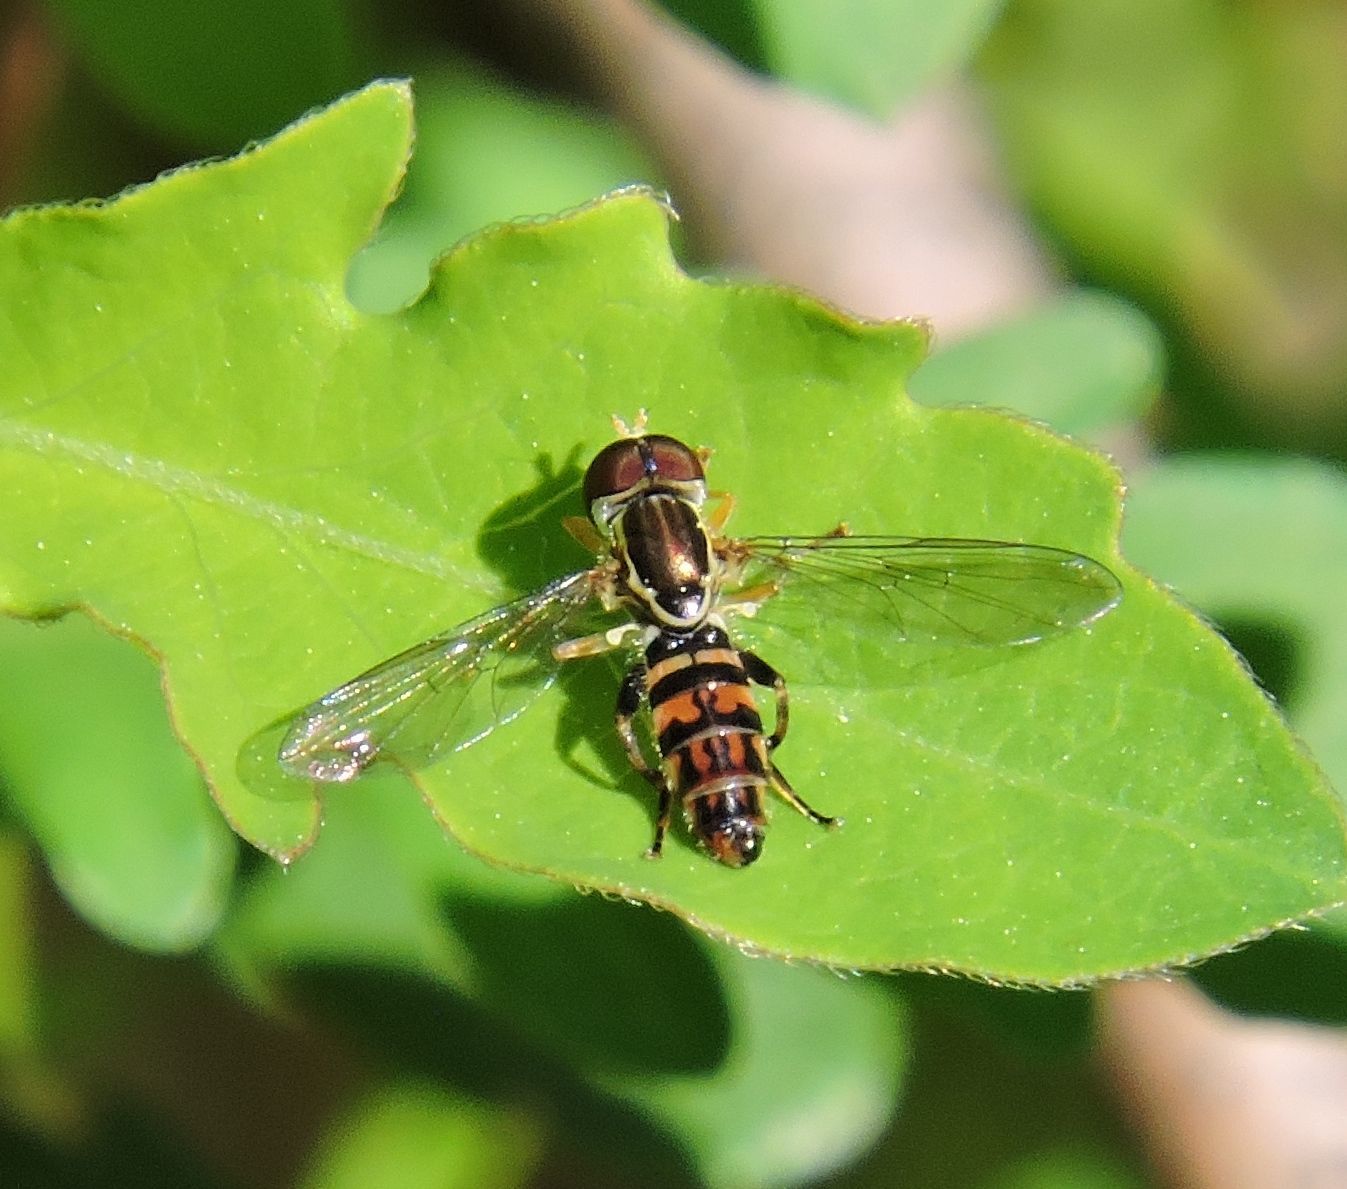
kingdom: Animalia
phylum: Arthropoda
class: Insecta
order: Diptera
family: Syrphidae
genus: Toxomerus
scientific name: Toxomerus geminatus
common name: Eastern calligrapher
